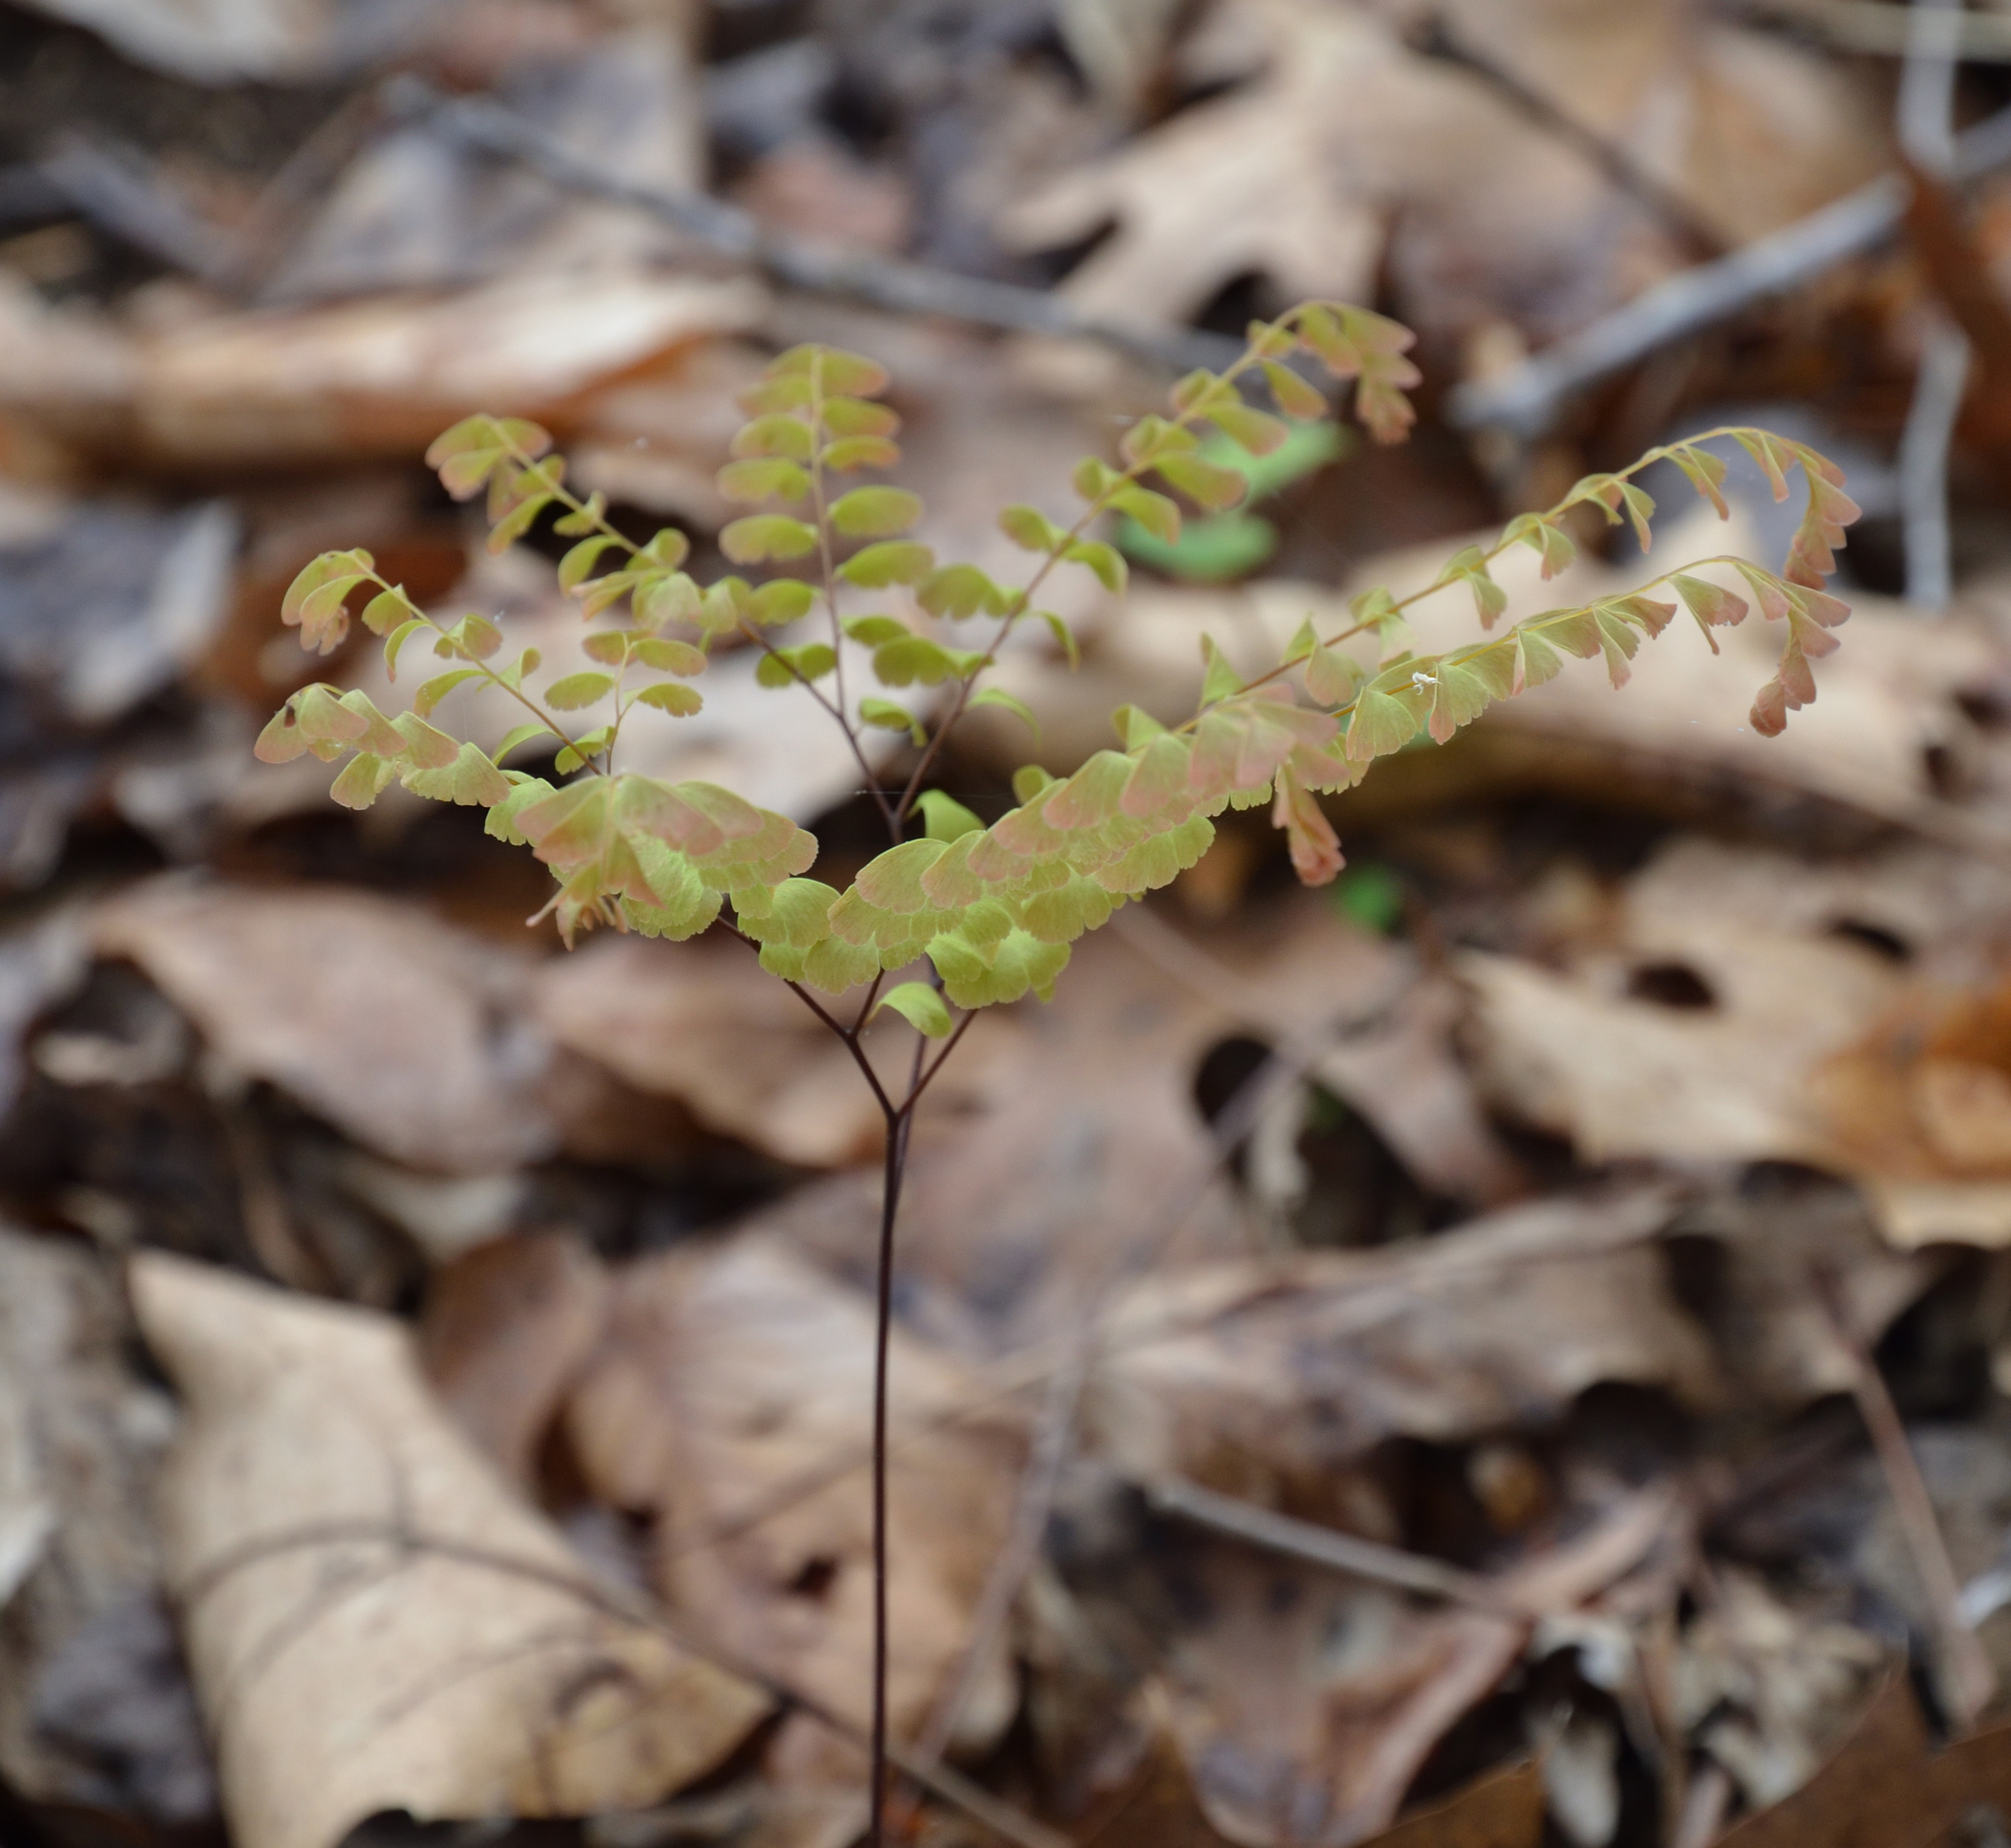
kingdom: Plantae
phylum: Tracheophyta
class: Polypodiopsida
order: Polypodiales
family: Pteridaceae
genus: Adiantum
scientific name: Adiantum pedatum
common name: Five-finger fern
